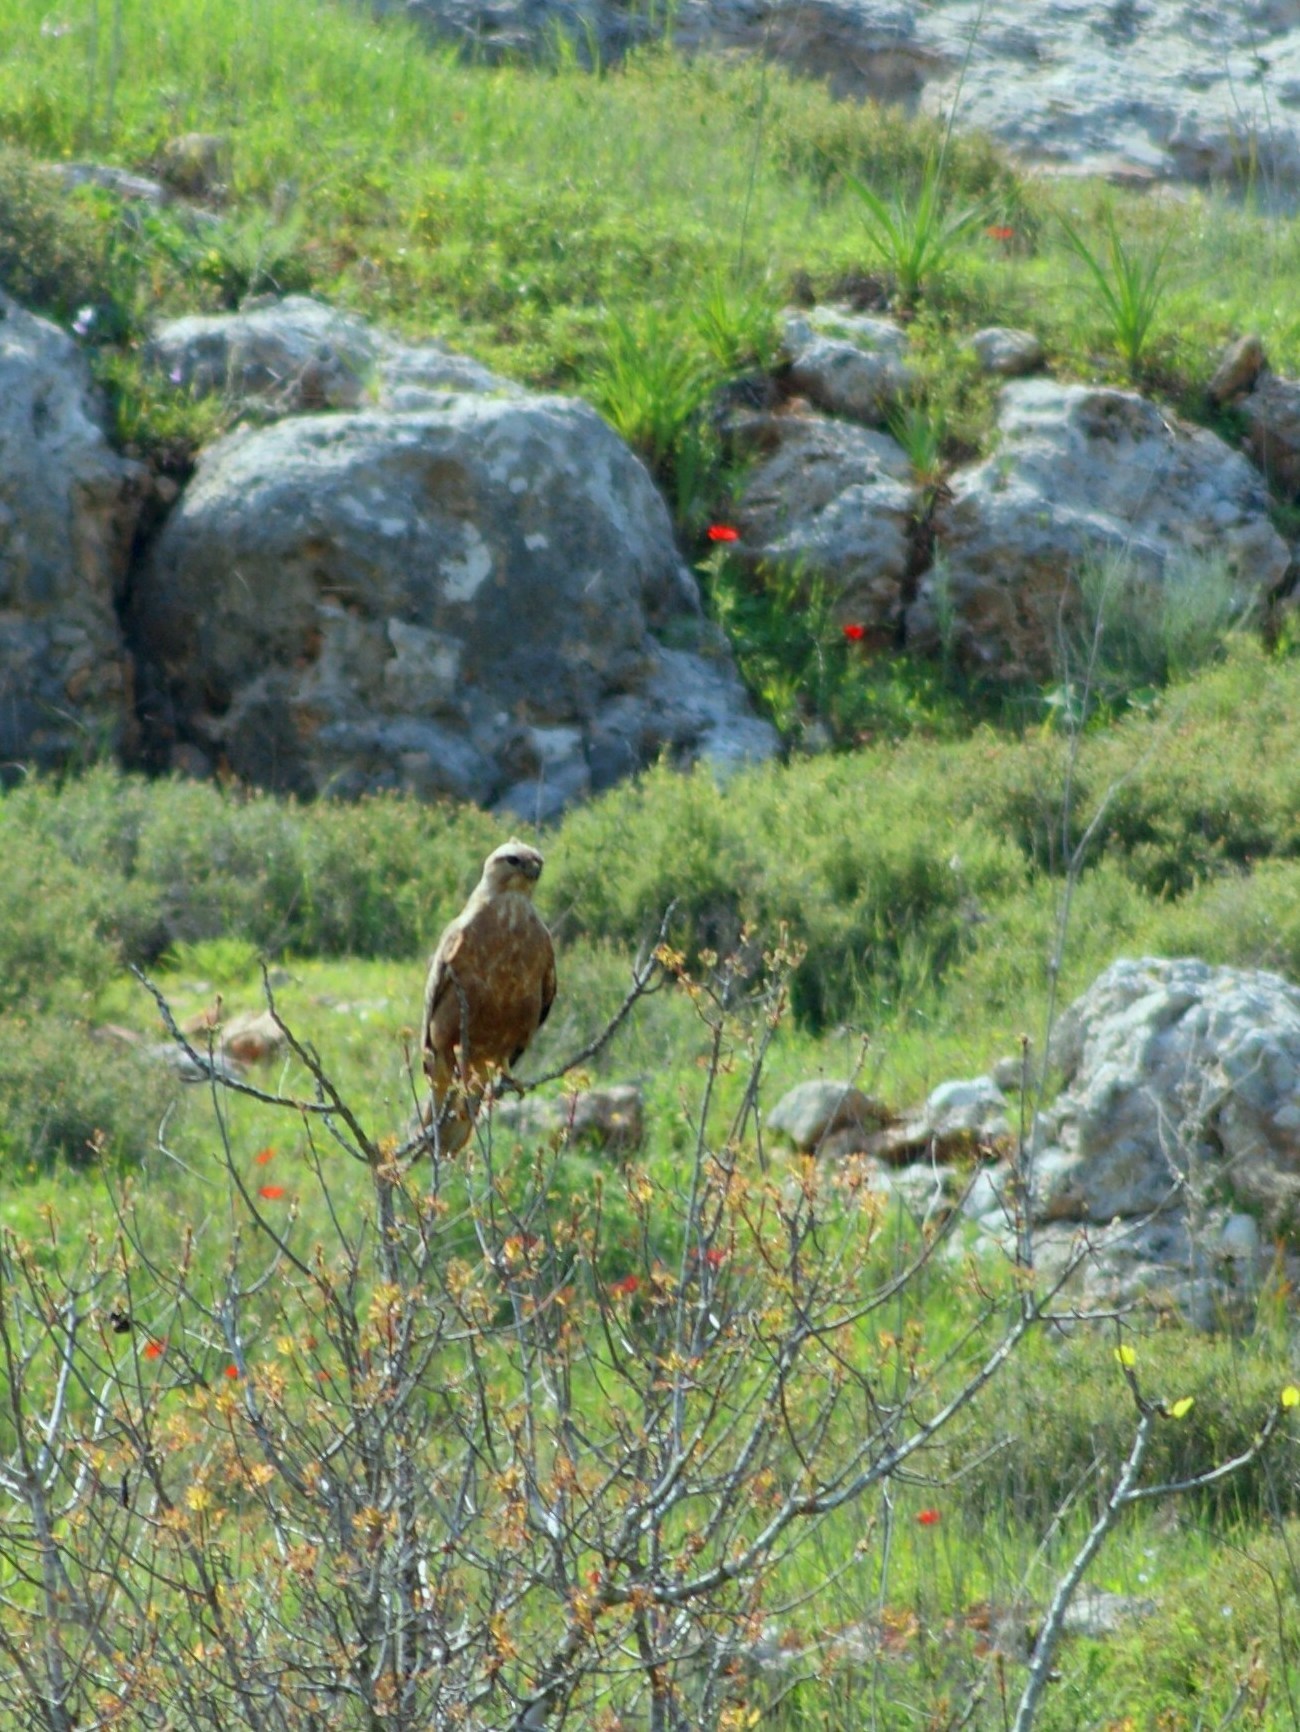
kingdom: Animalia
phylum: Chordata
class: Aves
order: Accipitriformes
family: Accipitridae
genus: Buteo
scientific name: Buteo rufinus
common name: Long-legged buzzard
